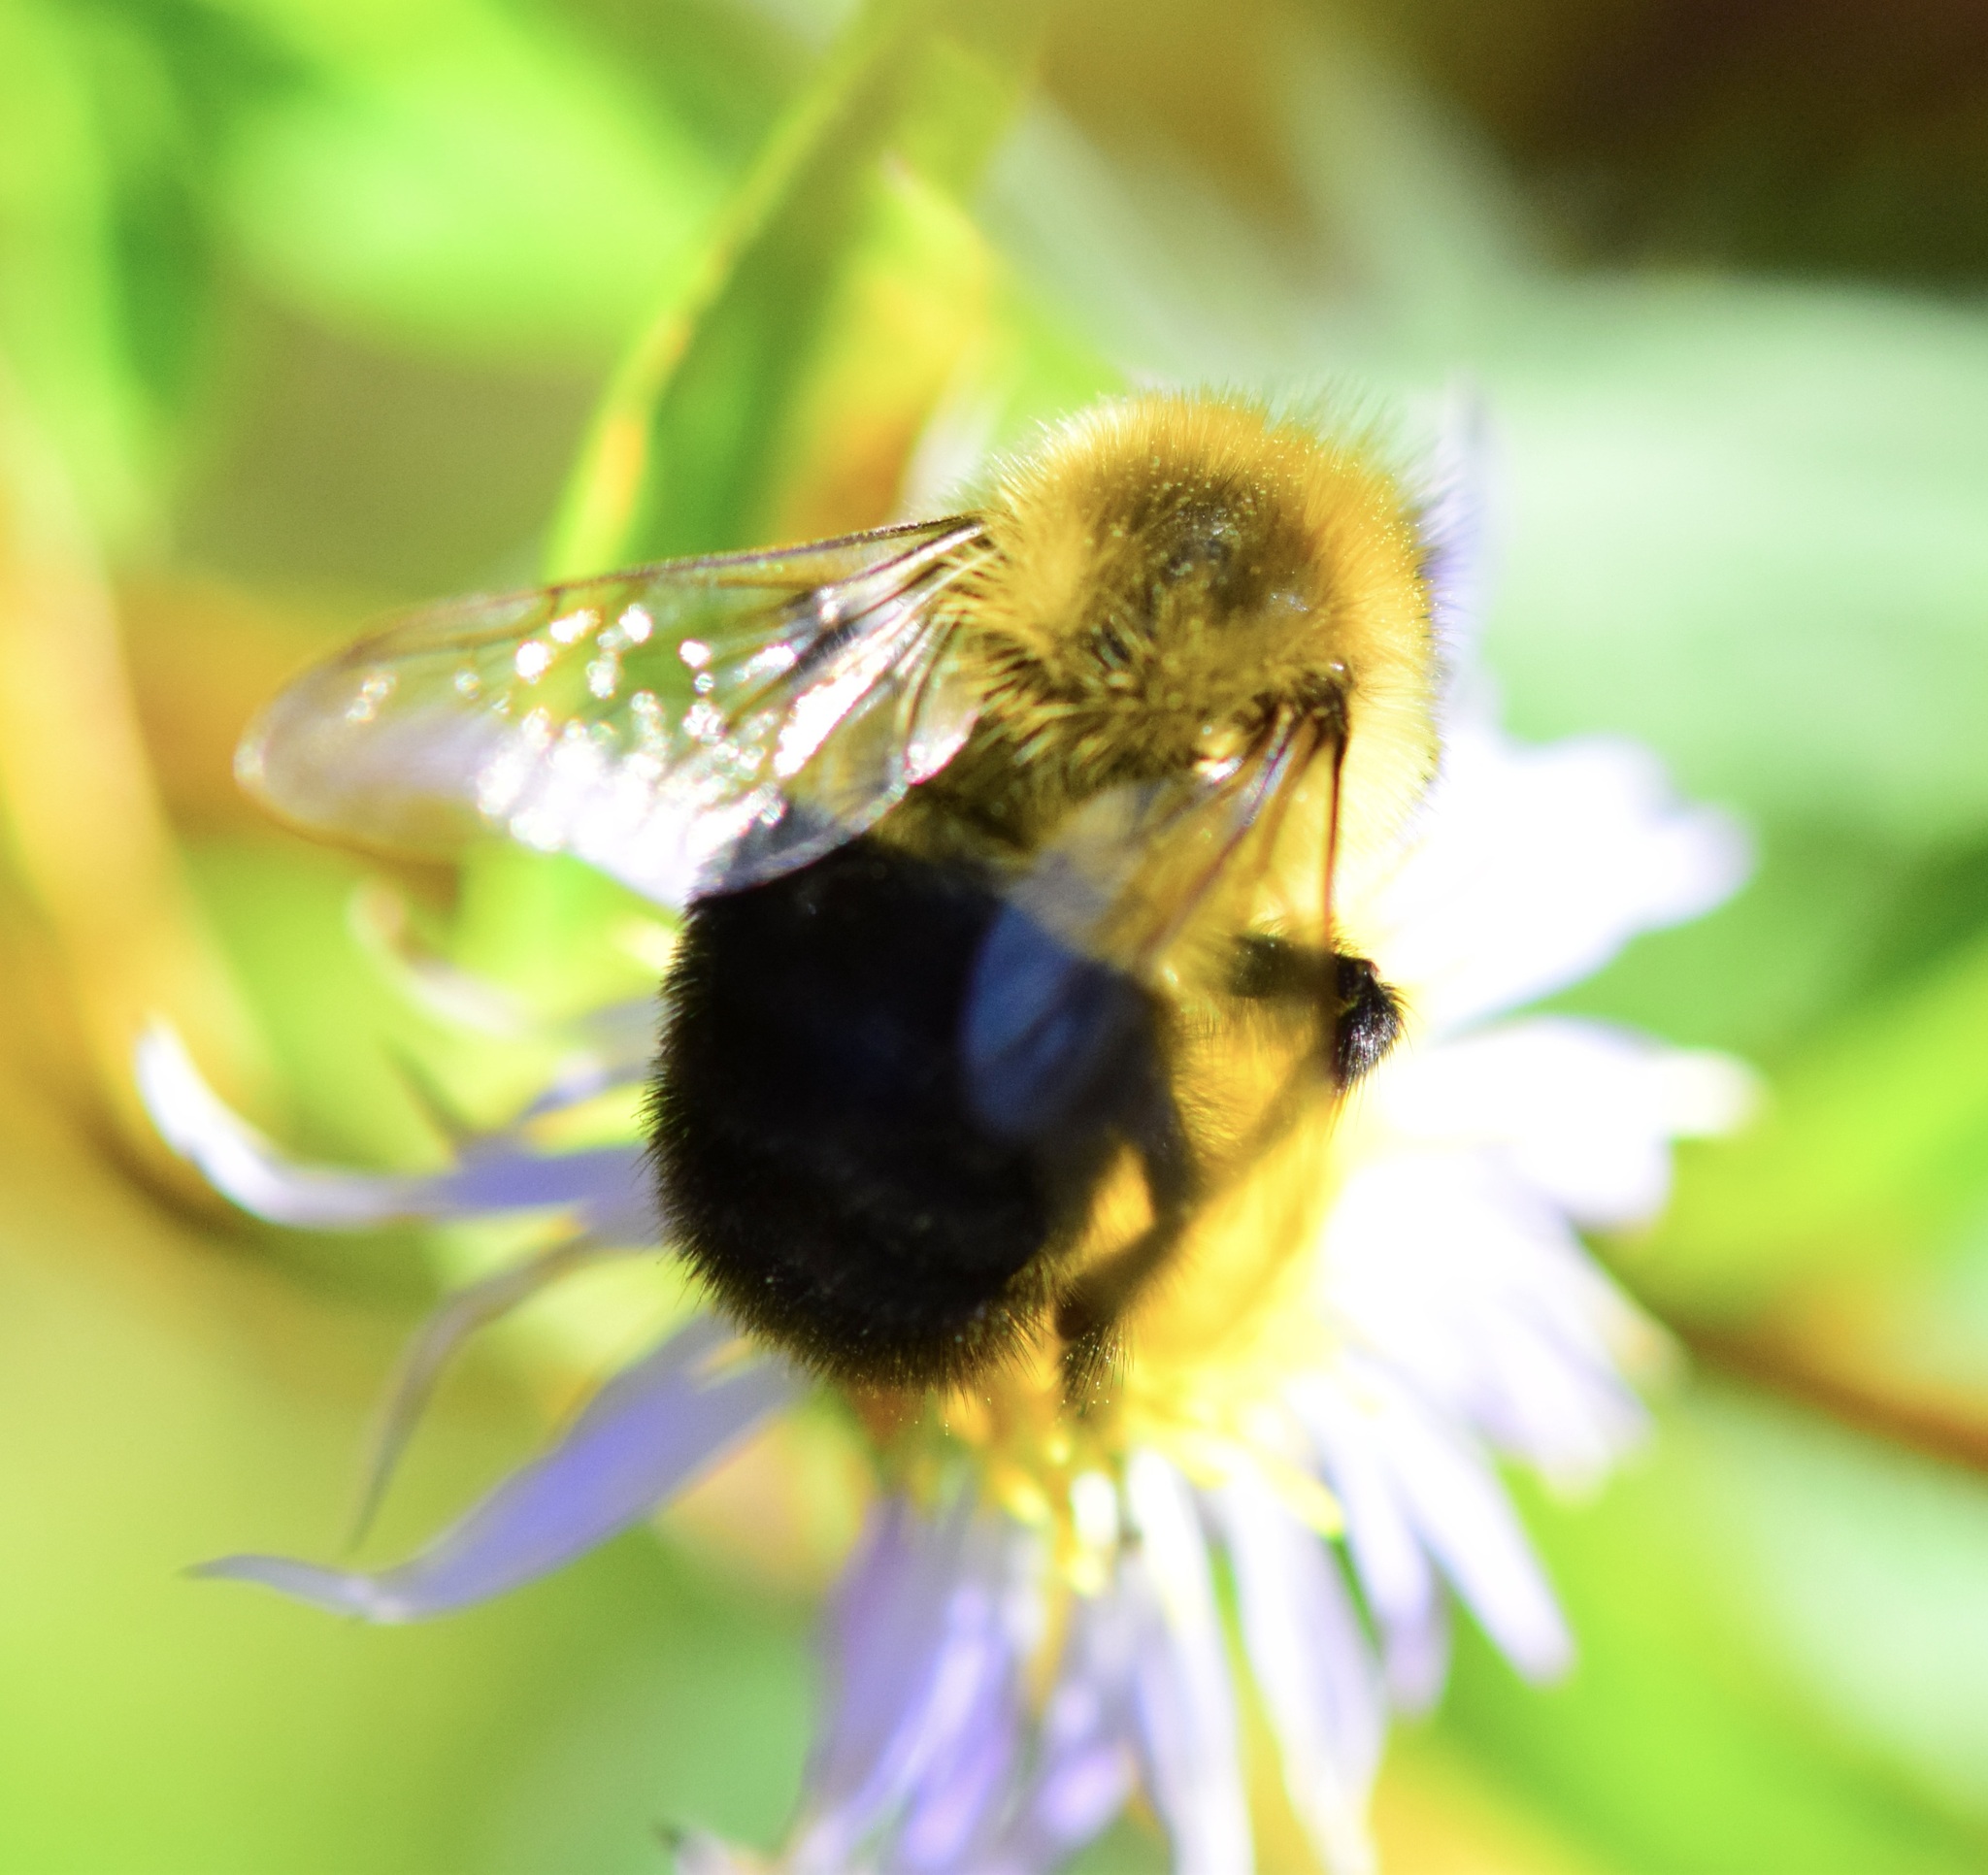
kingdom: Animalia
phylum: Arthropoda
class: Insecta
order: Hymenoptera
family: Apidae
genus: Bombus
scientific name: Bombus impatiens
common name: Common eastern bumble bee
